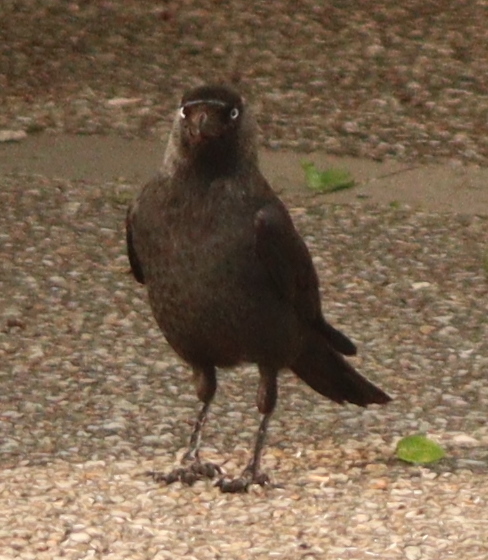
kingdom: Animalia
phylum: Chordata
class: Aves
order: Passeriformes
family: Corvidae
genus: Coloeus
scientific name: Coloeus monedula
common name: Western jackdaw
